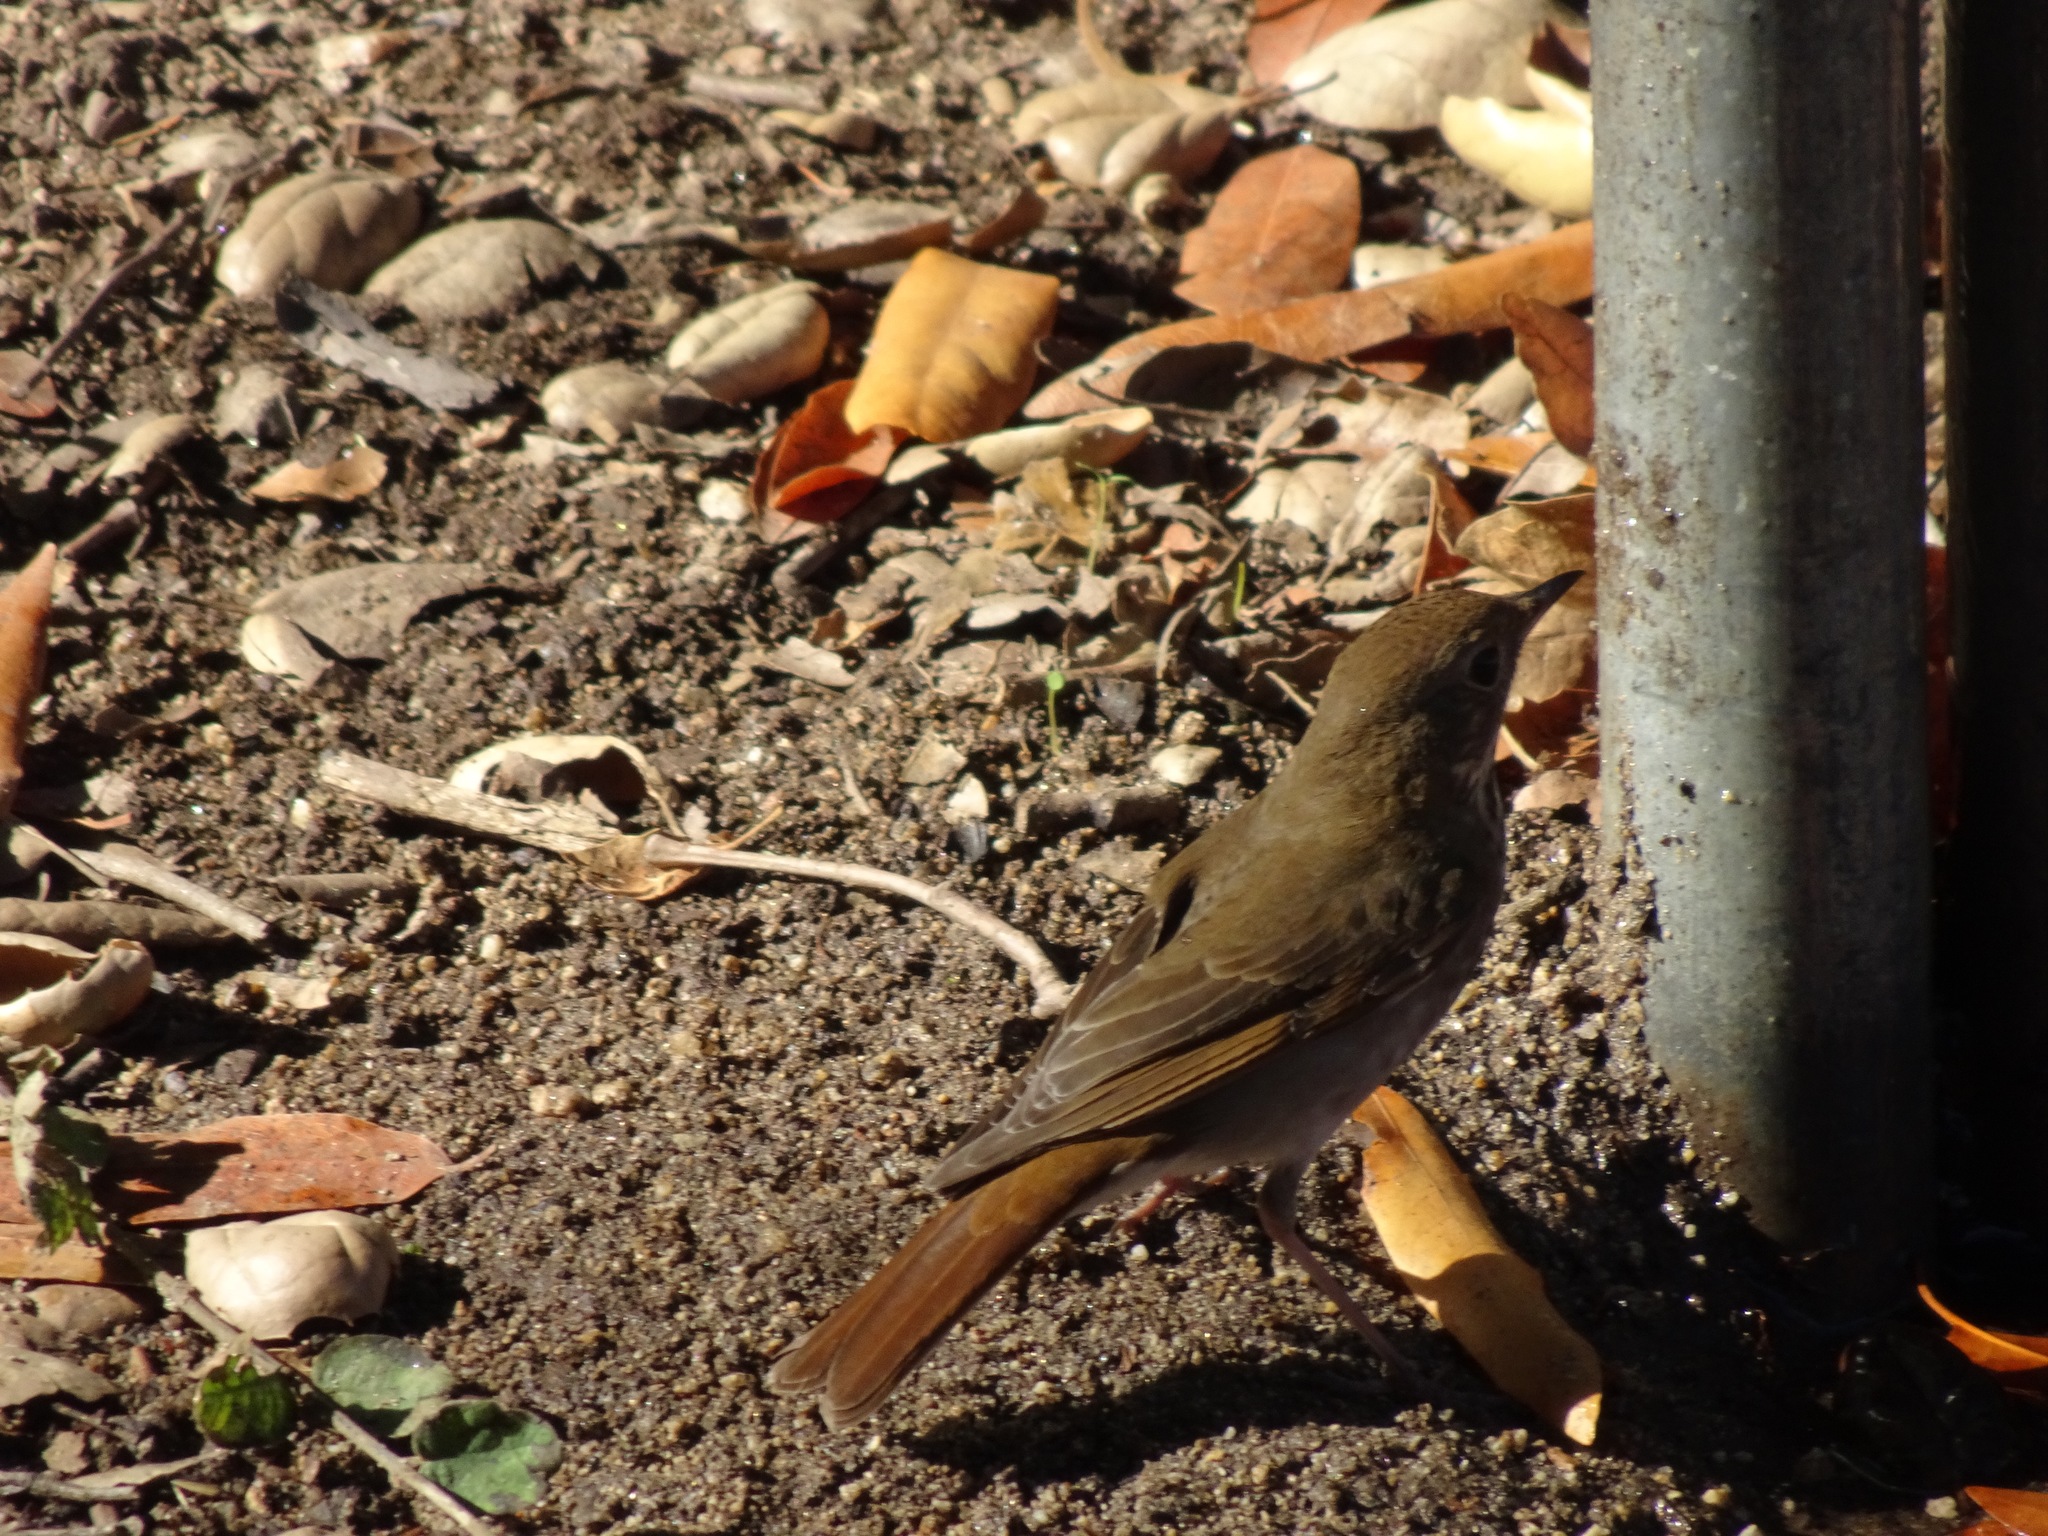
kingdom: Animalia
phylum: Chordata
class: Aves
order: Passeriformes
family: Turdidae
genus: Catharus
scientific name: Catharus guttatus
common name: Hermit thrush
